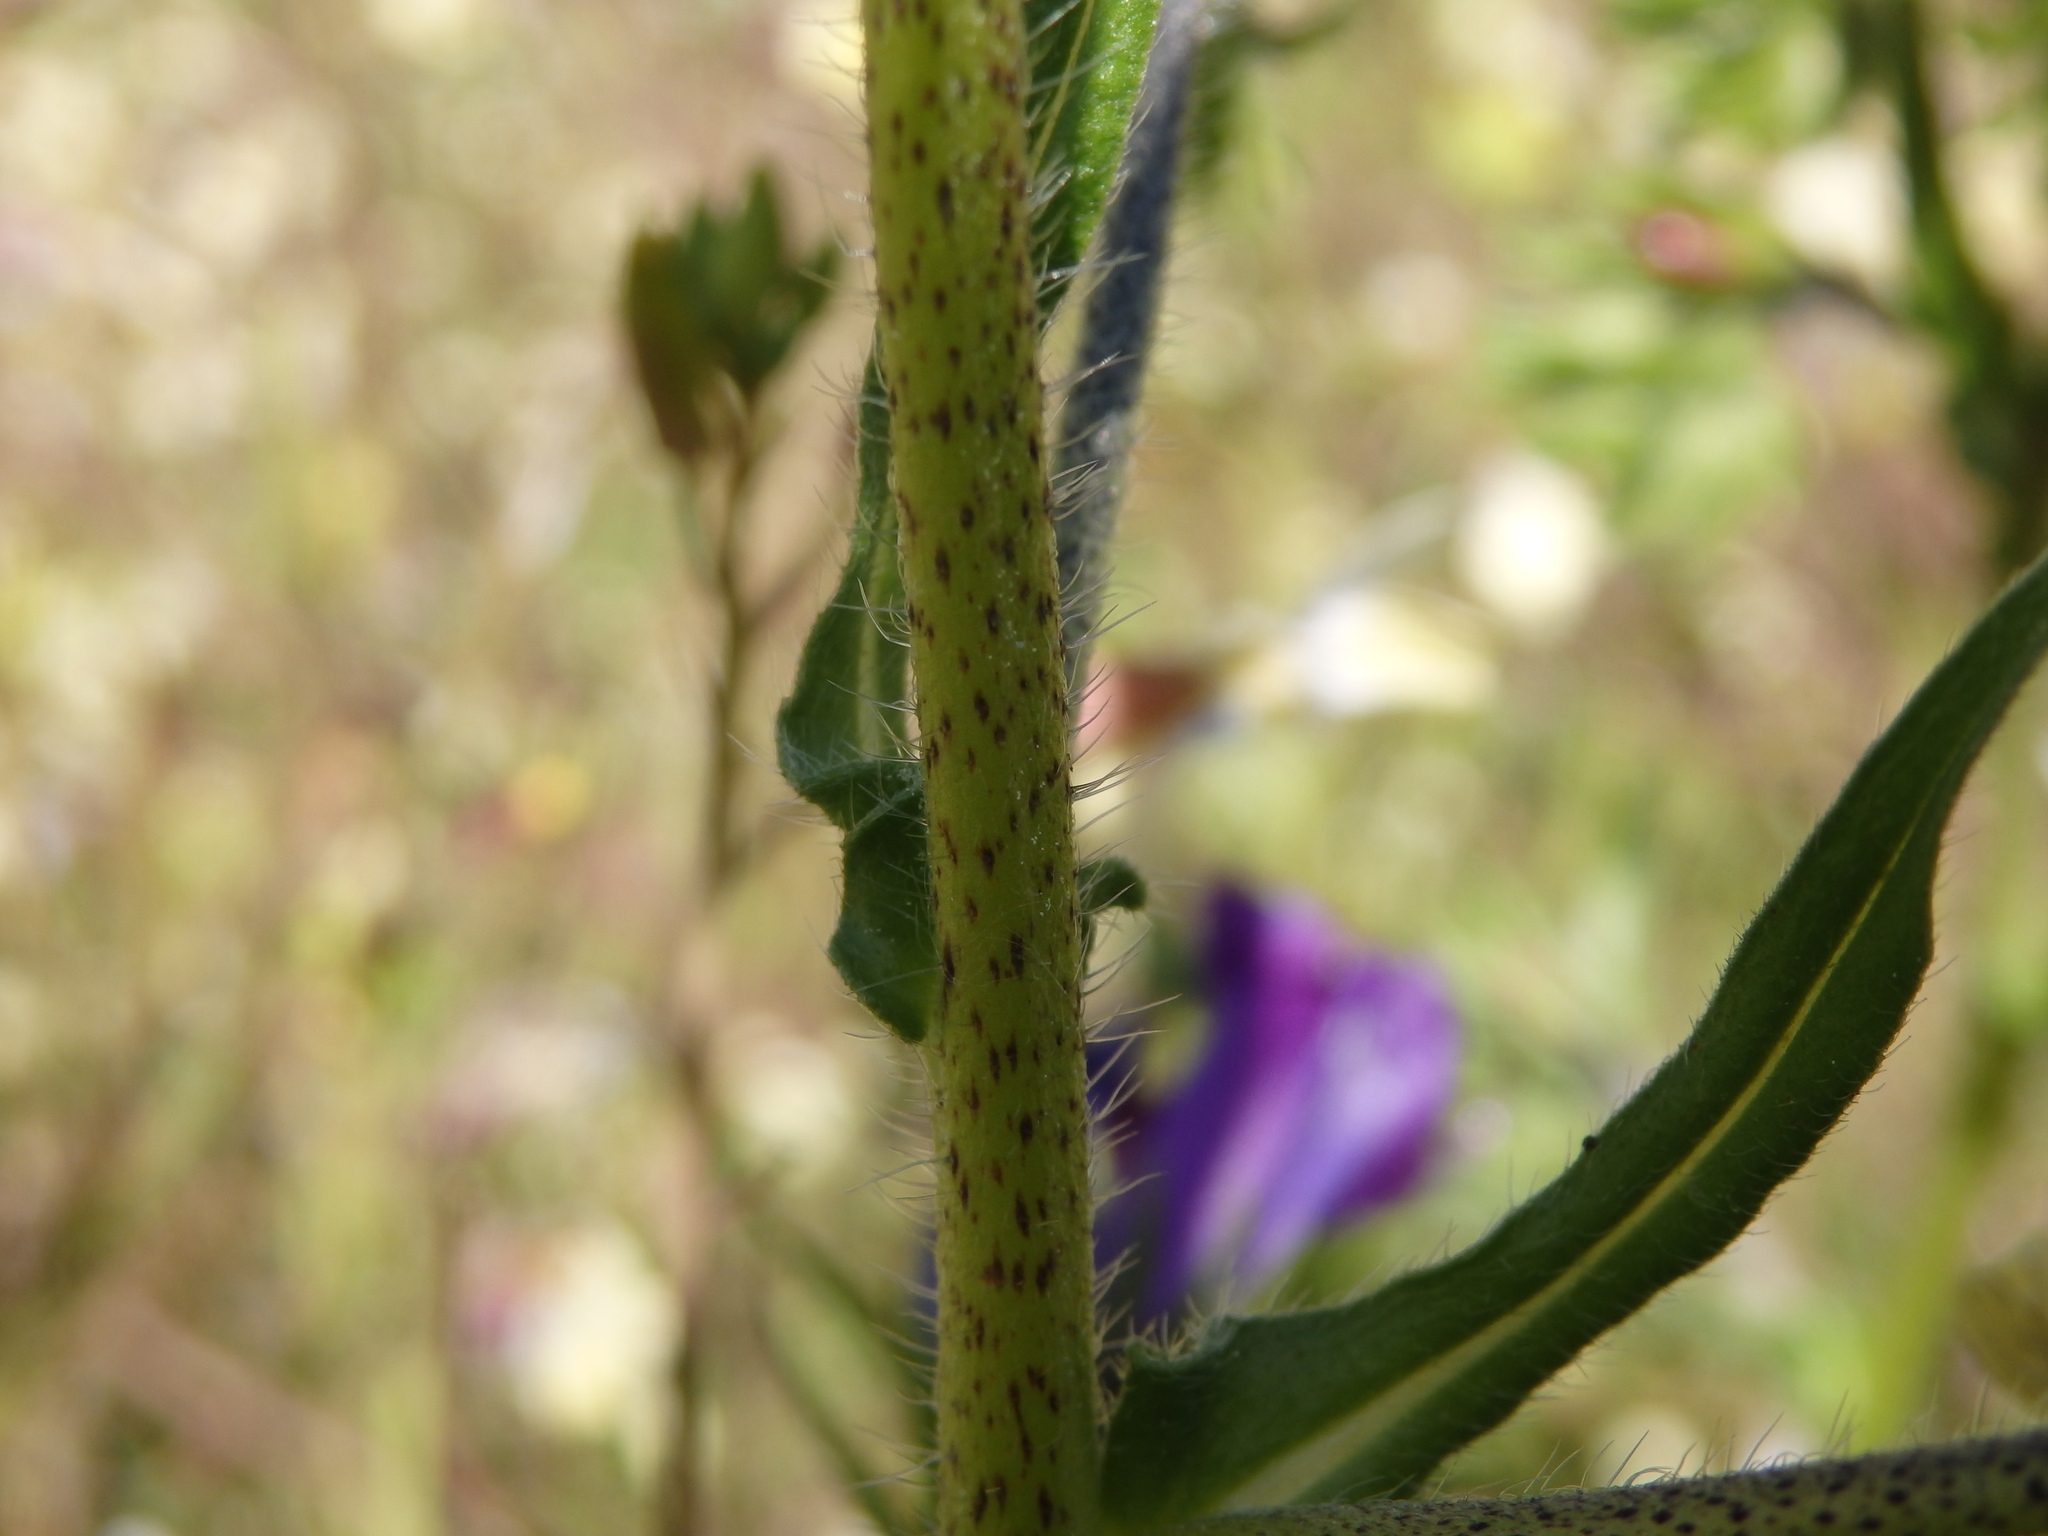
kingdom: Plantae
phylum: Tracheophyta
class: Magnoliopsida
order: Boraginales
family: Boraginaceae
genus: Echium
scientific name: Echium plantagineum
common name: Purple viper's-bugloss
